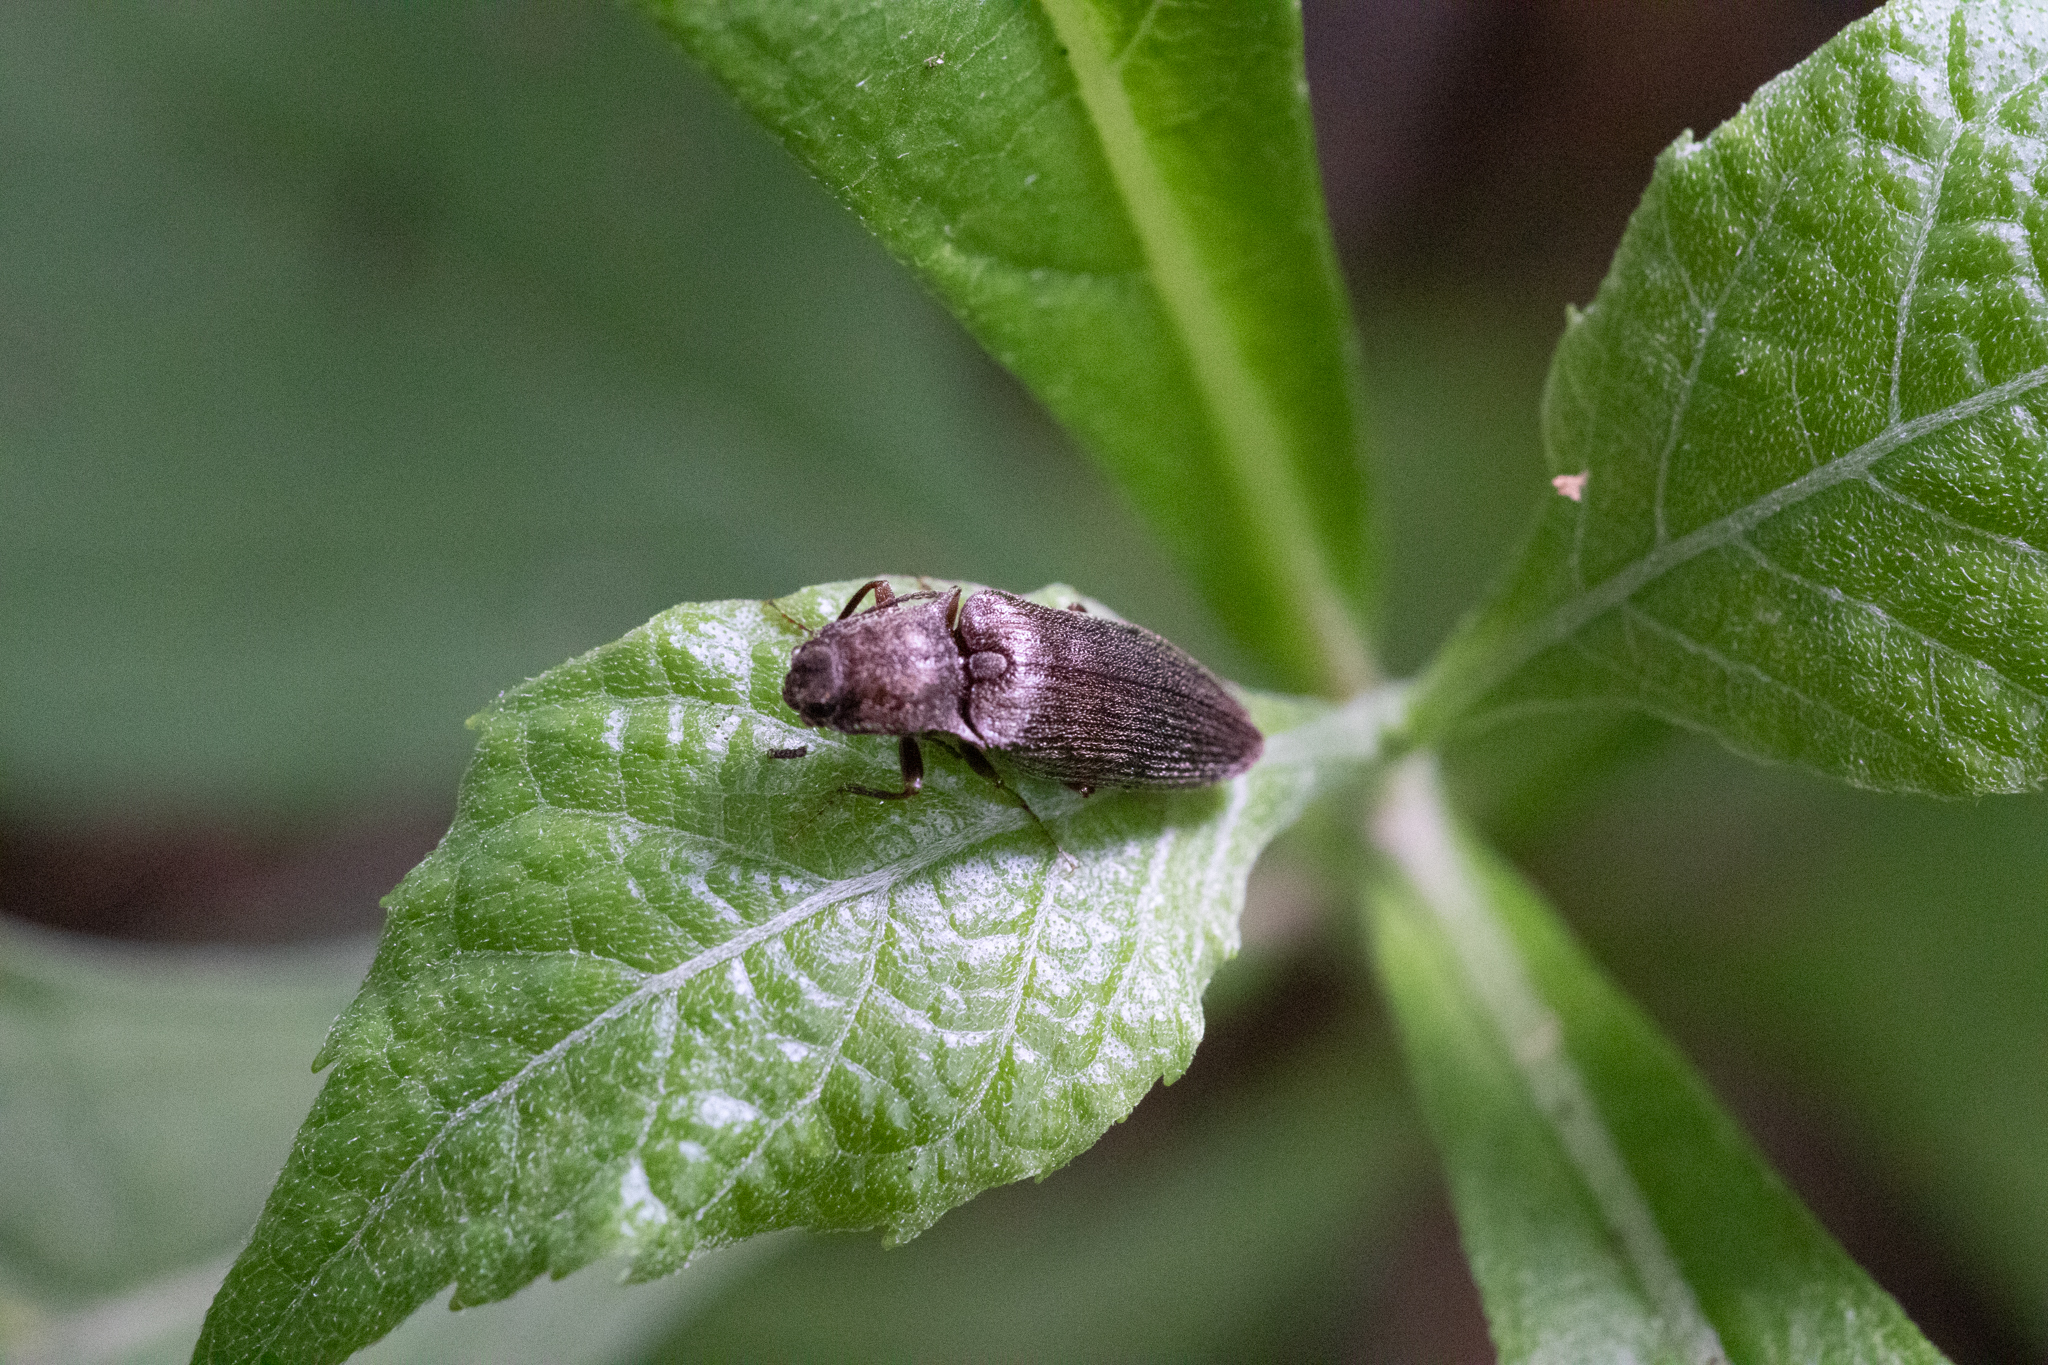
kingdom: Animalia
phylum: Arthropoda
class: Insecta
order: Coleoptera
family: Elateridae
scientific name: Elateridae
